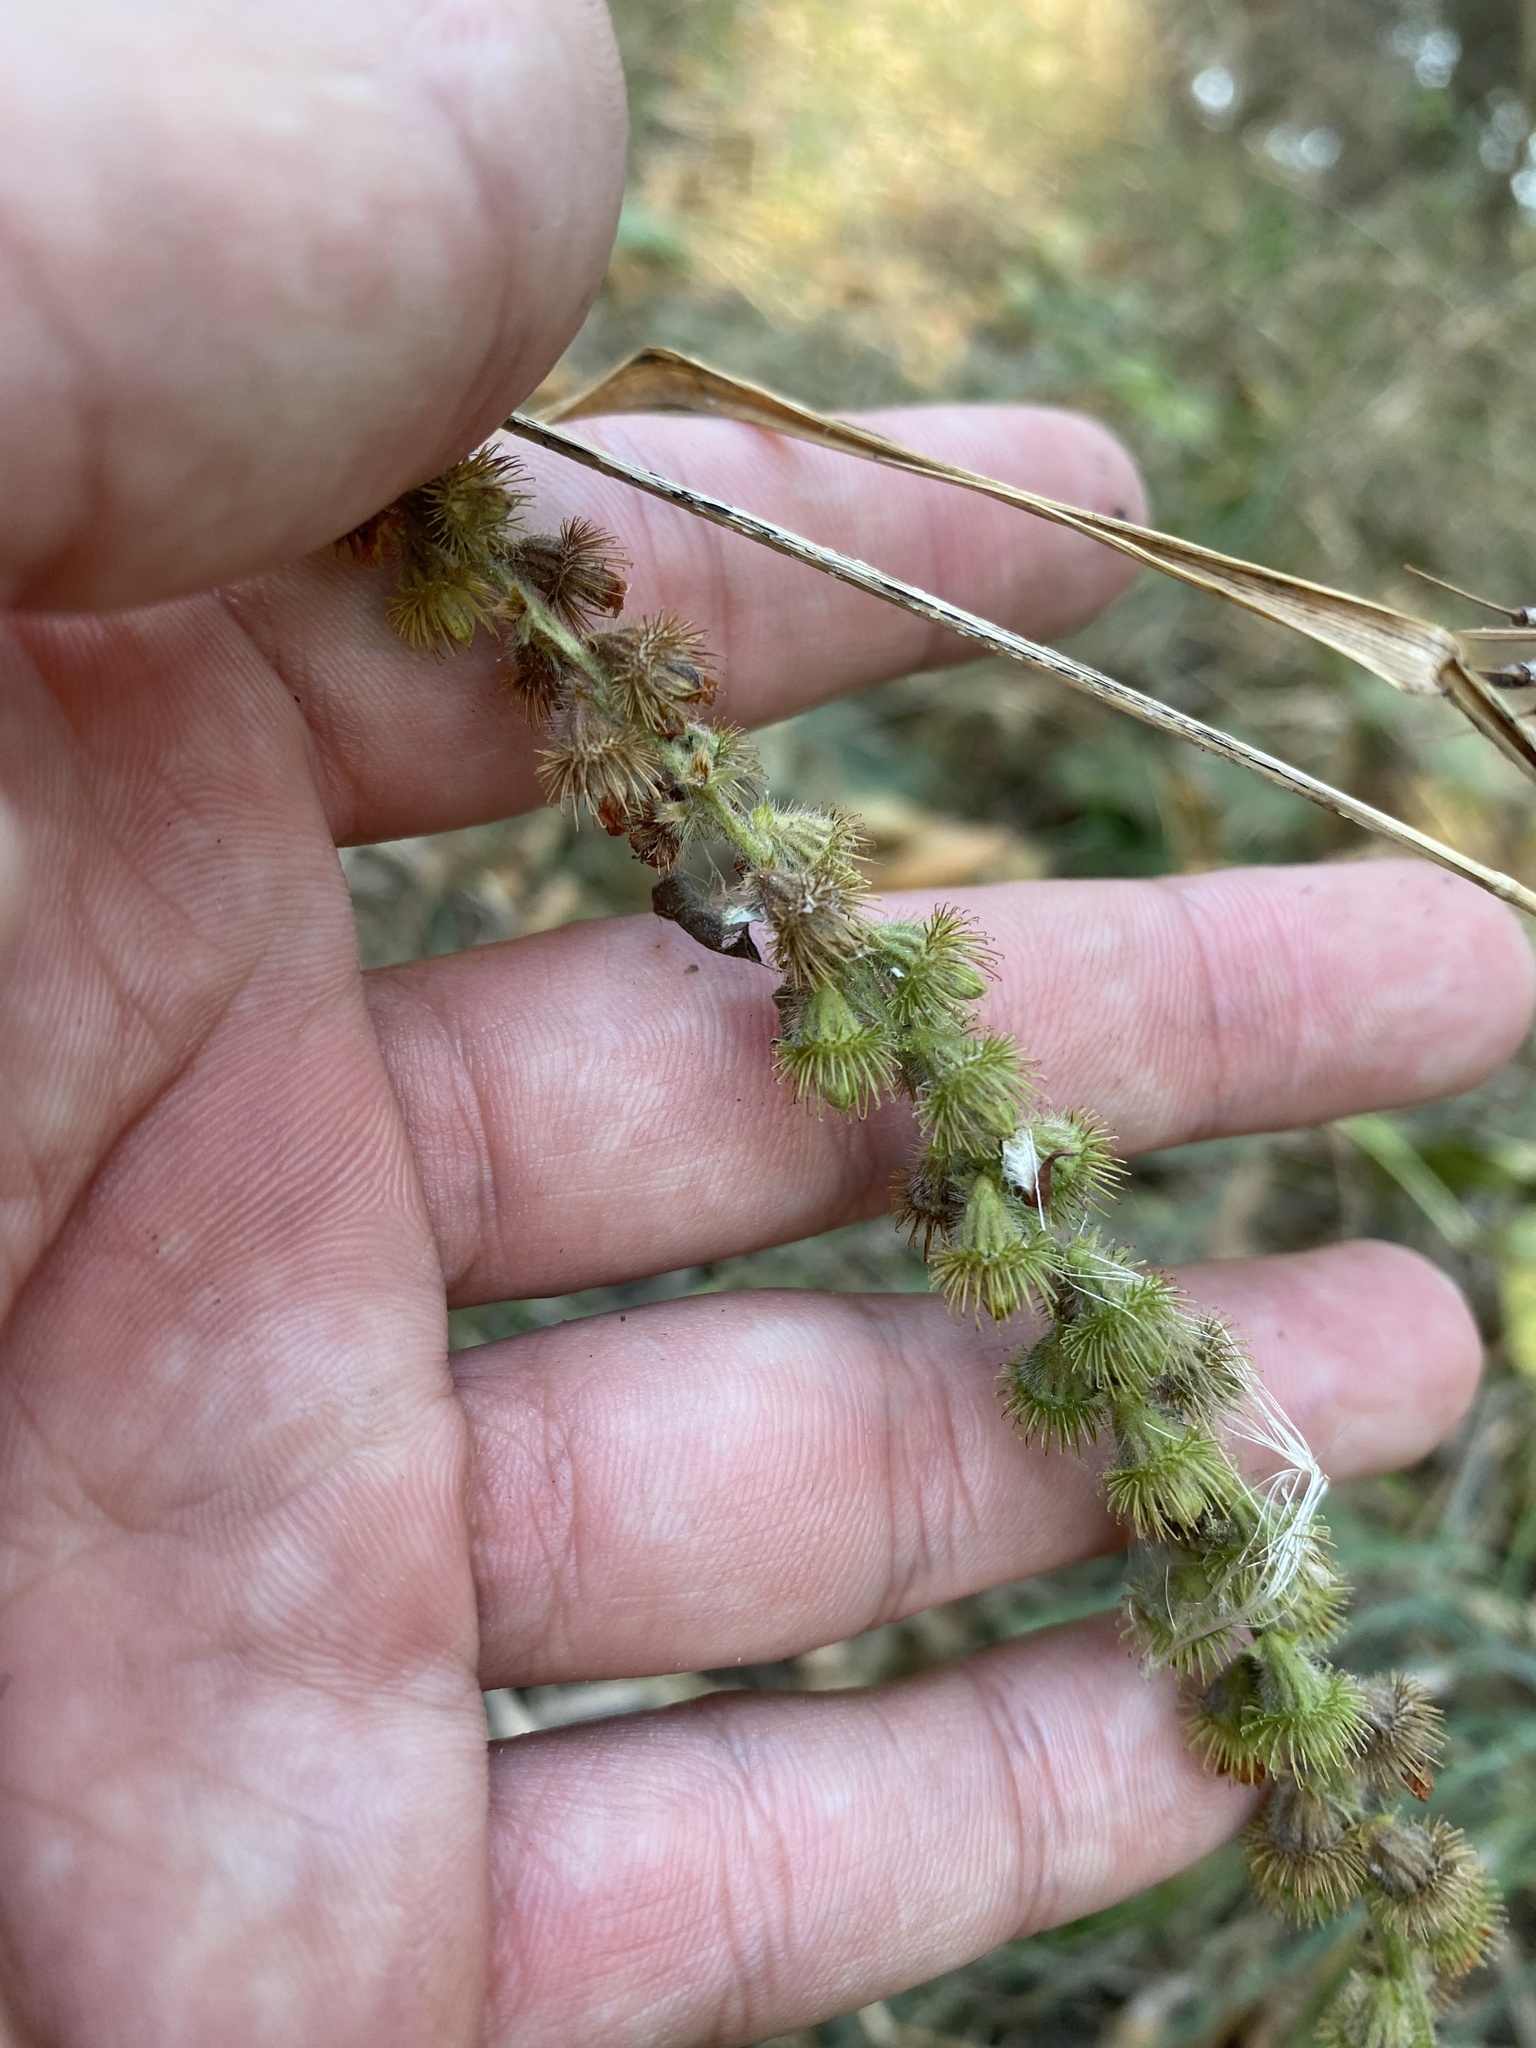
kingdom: Plantae
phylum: Tracheophyta
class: Magnoliopsida
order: Rosales
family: Rosaceae
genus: Agrimonia
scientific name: Agrimonia eupatoria
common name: Agrimony
